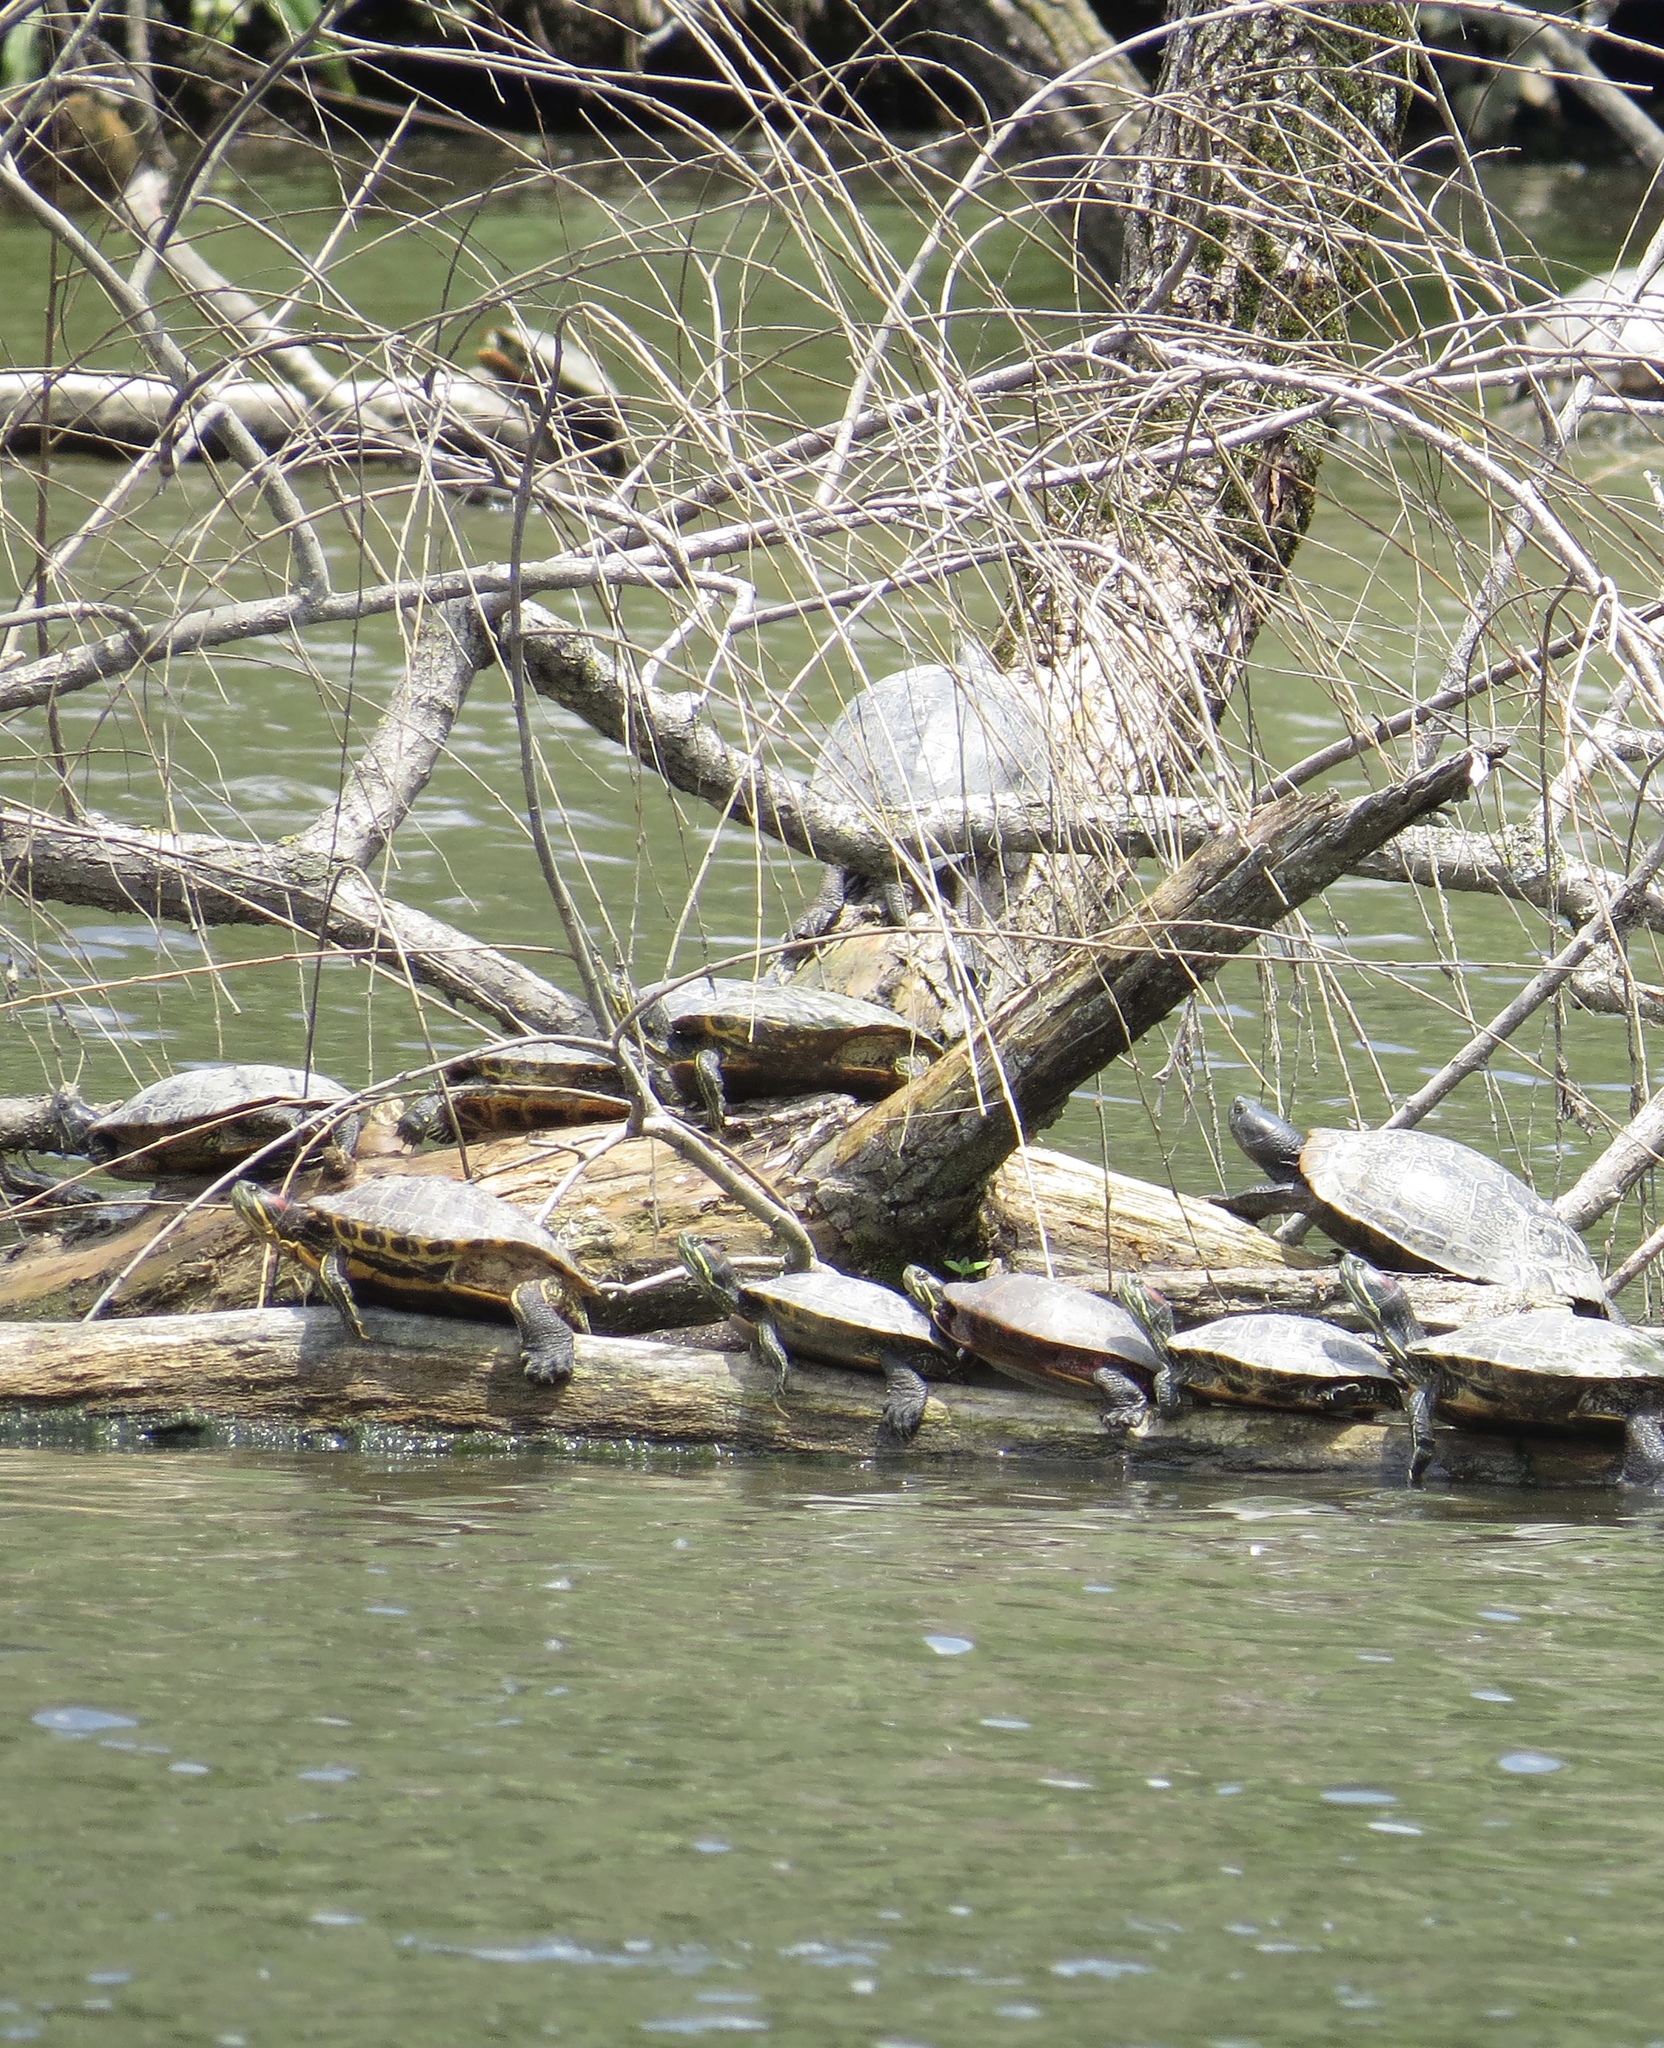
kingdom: Animalia
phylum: Chordata
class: Testudines
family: Emydidae
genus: Trachemys
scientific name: Trachemys scripta
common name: Slider
